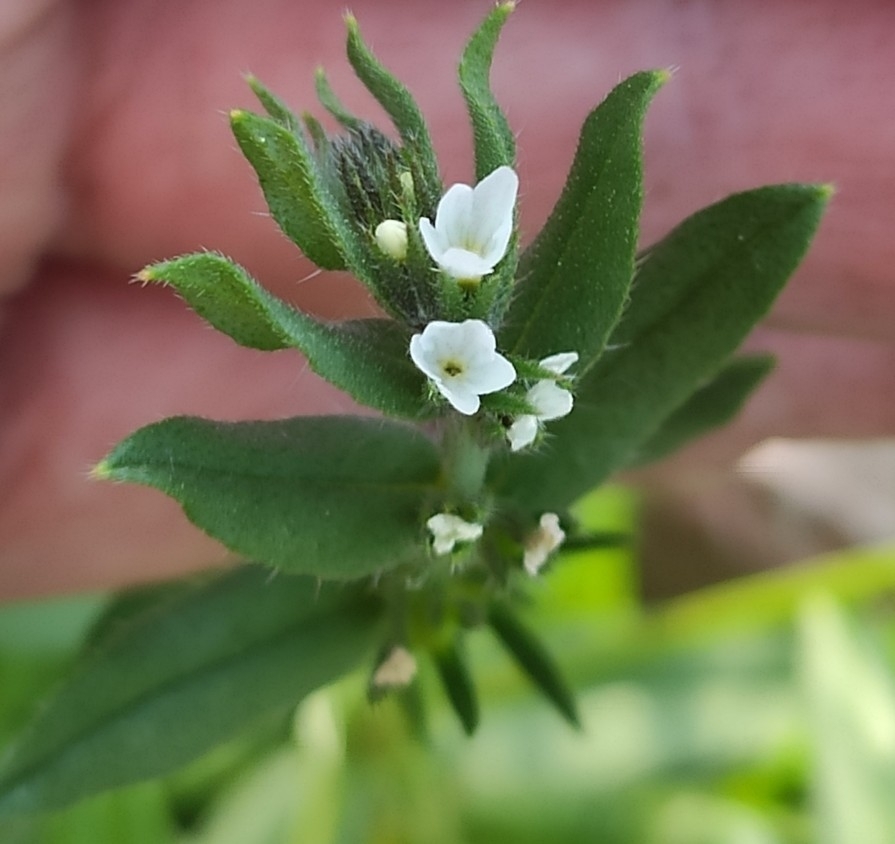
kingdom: Plantae
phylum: Tracheophyta
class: Magnoliopsida
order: Boraginales
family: Boraginaceae
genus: Buglossoides
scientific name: Buglossoides arvensis
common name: Corn gromwell
